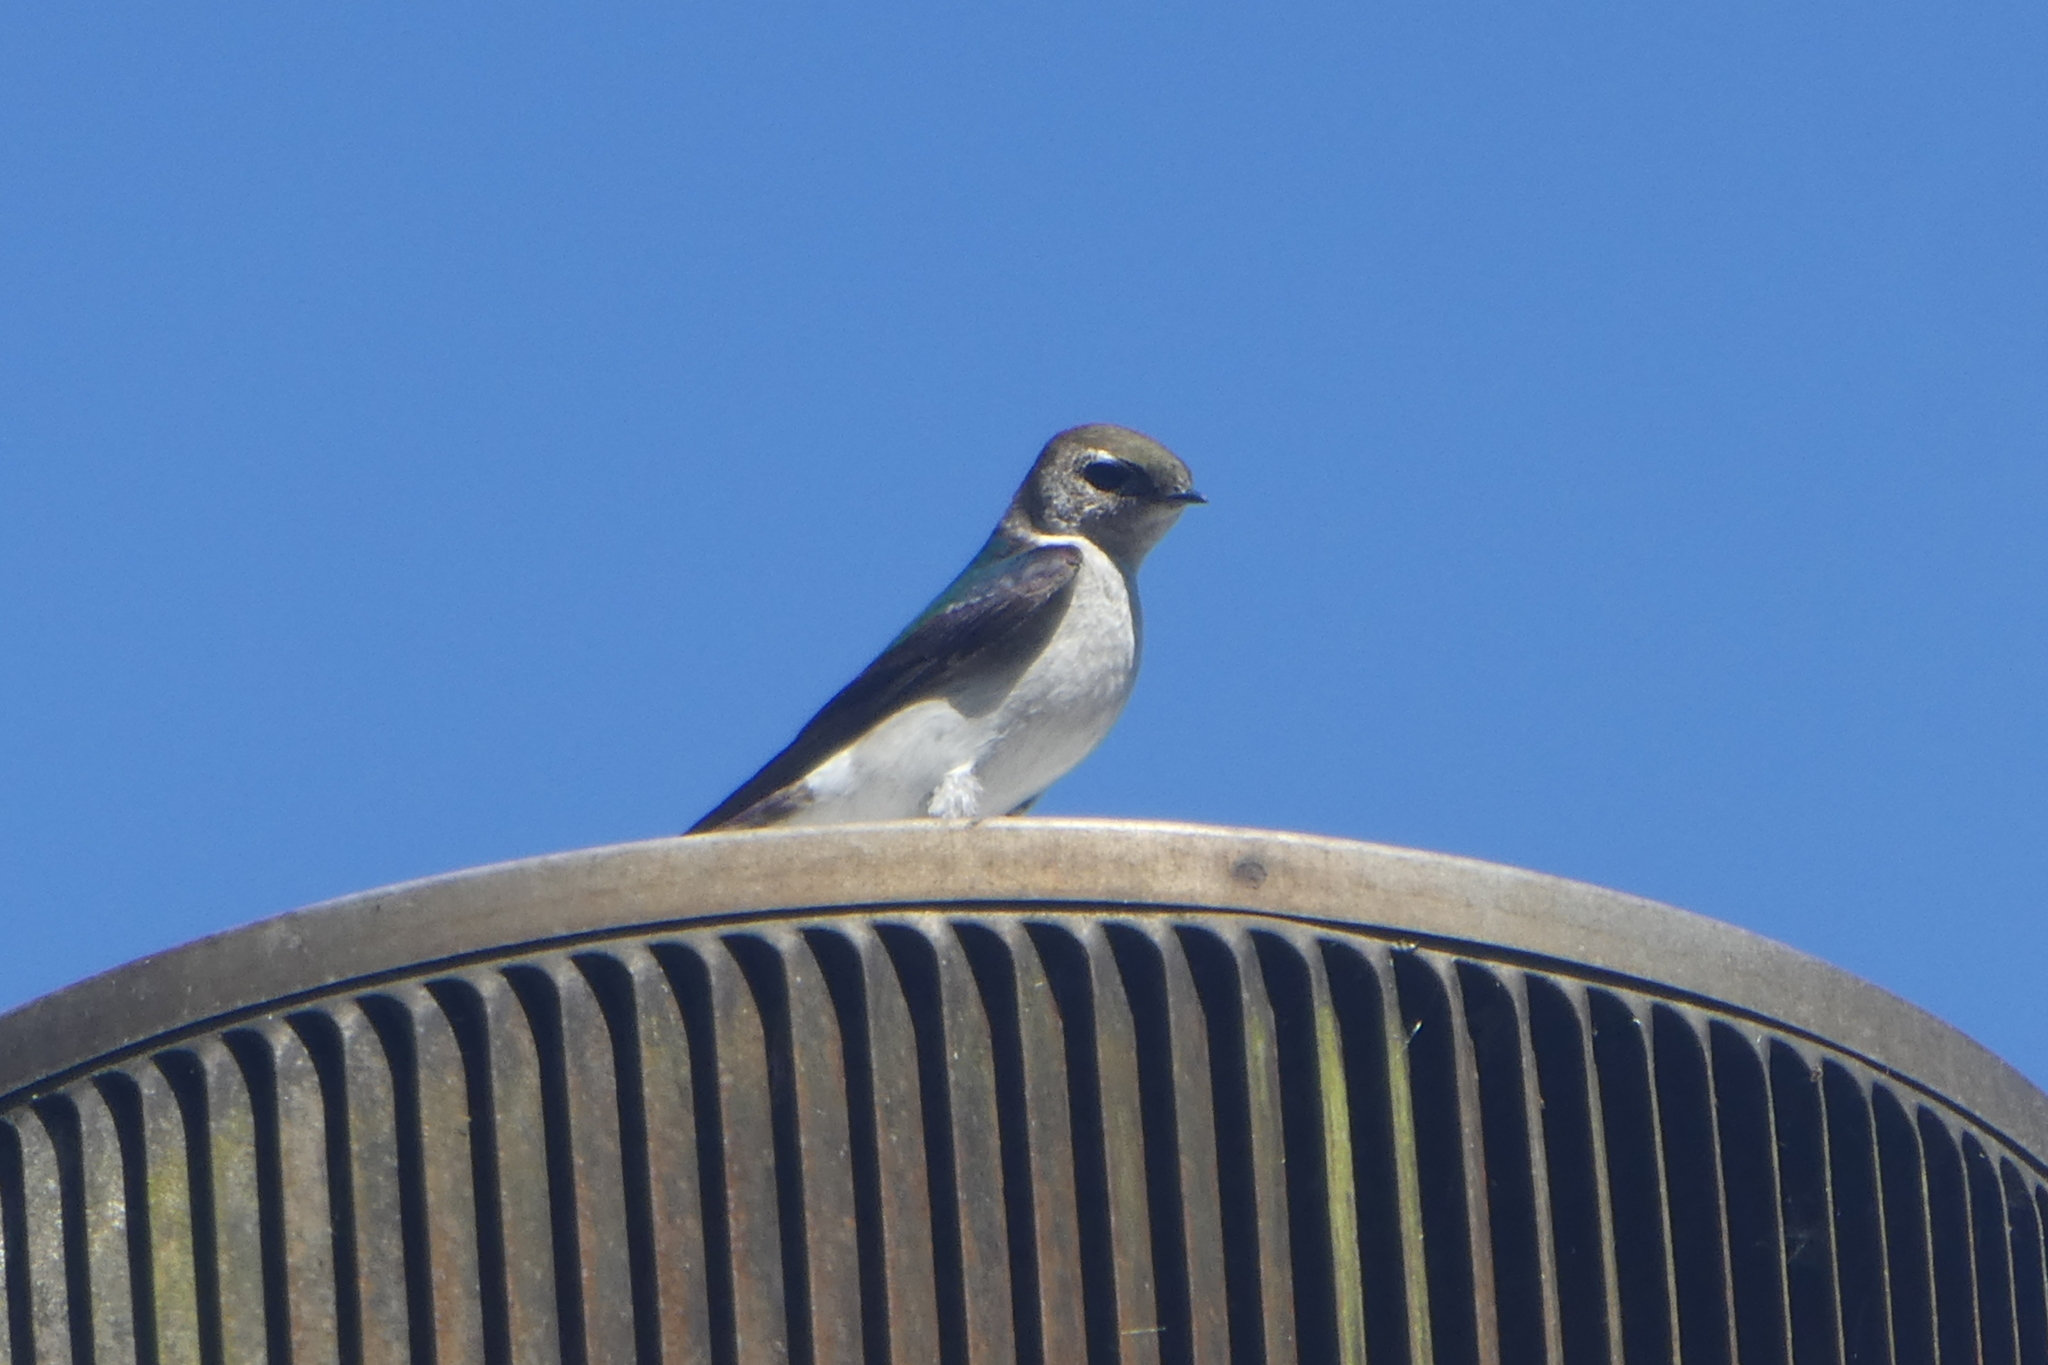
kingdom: Animalia
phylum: Chordata
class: Aves
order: Passeriformes
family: Hirundinidae
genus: Tachycineta
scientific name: Tachycineta thalassina
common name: Violet-green swallow
